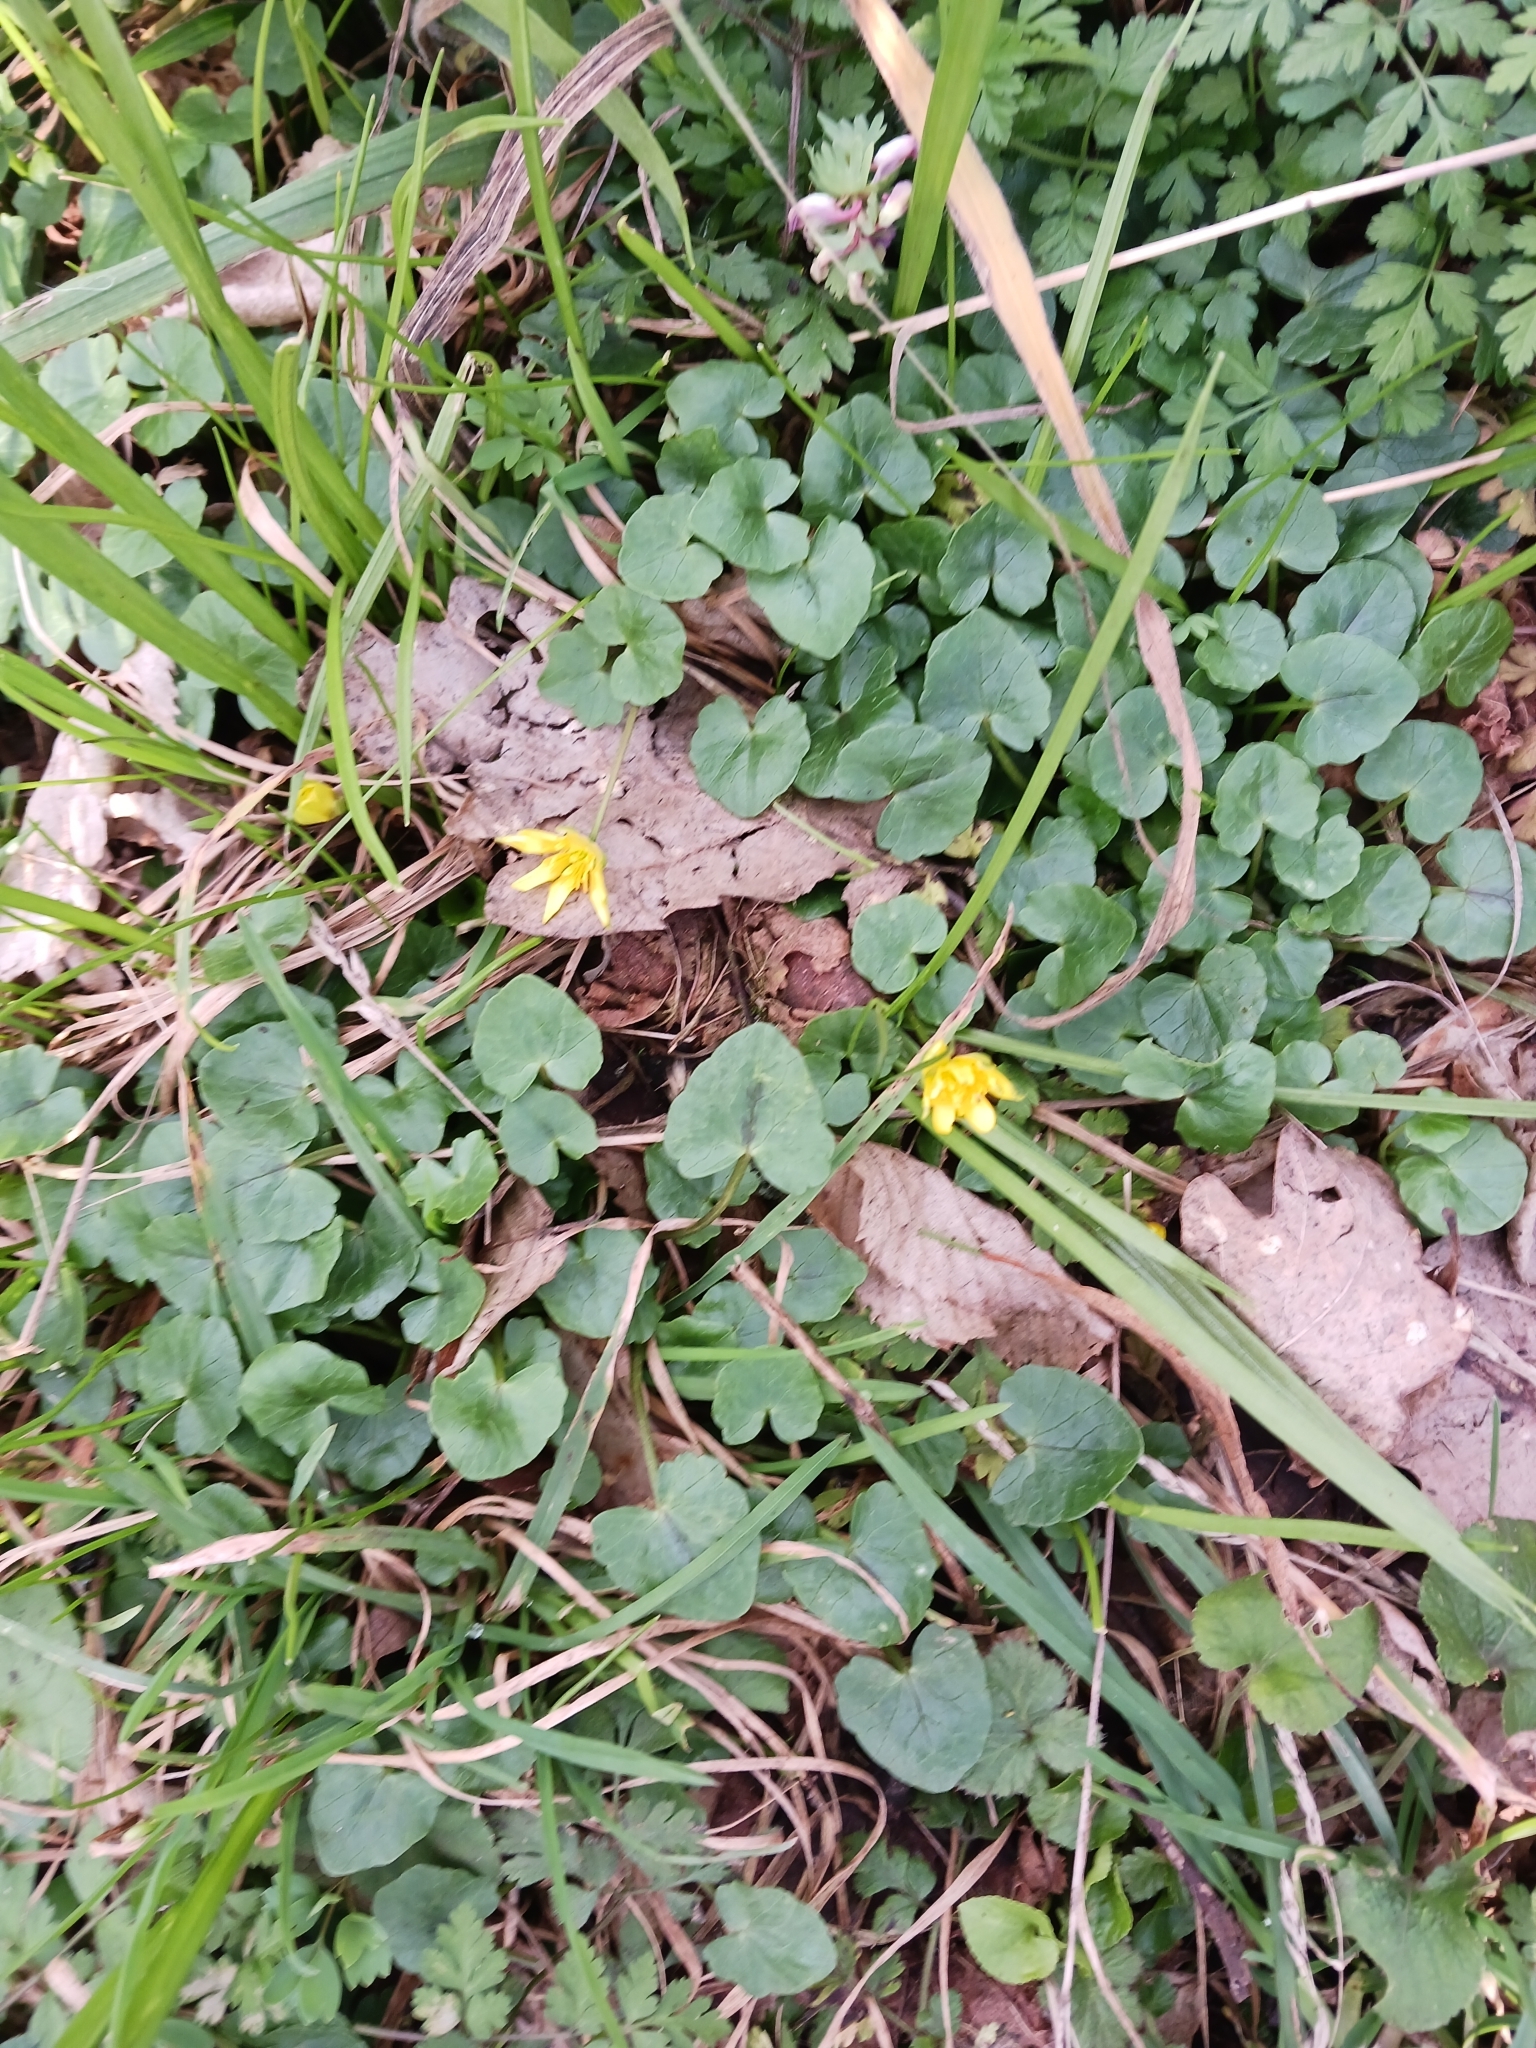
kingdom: Plantae
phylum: Tracheophyta
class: Magnoliopsida
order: Ranunculales
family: Ranunculaceae
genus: Ficaria
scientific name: Ficaria verna
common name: Lesser celandine
